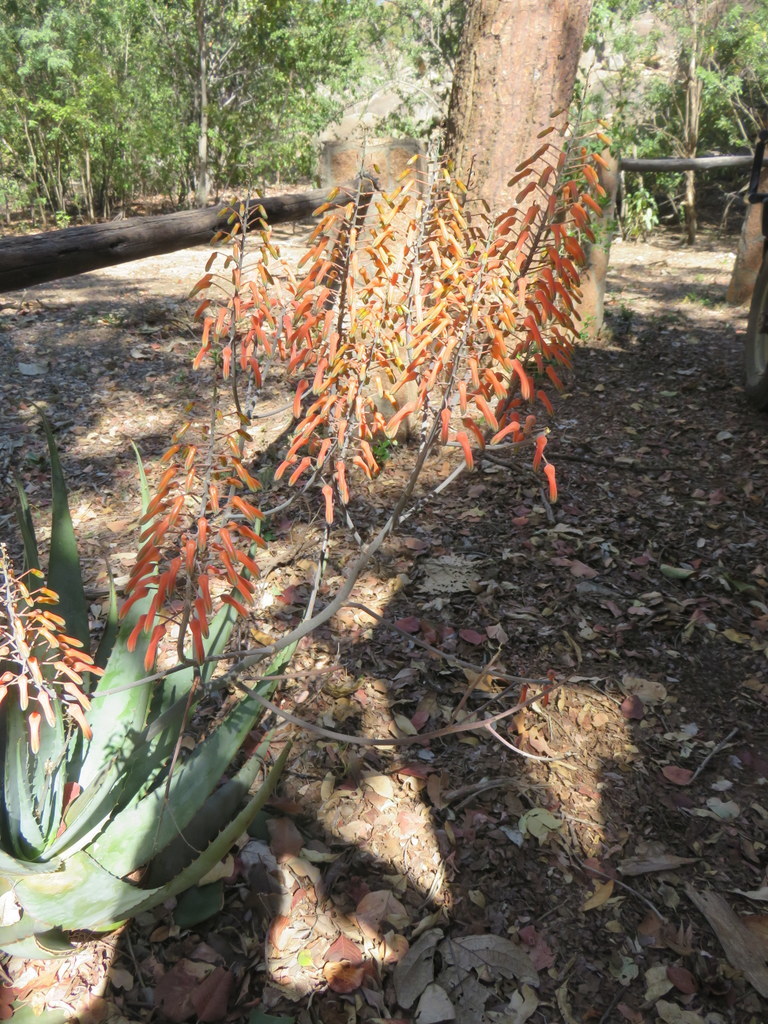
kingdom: Plantae
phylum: Tracheophyta
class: Liliopsida
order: Asparagales
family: Asphodelaceae
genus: Aloe
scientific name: Aloe chabaudii
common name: Chabaud's aloe
